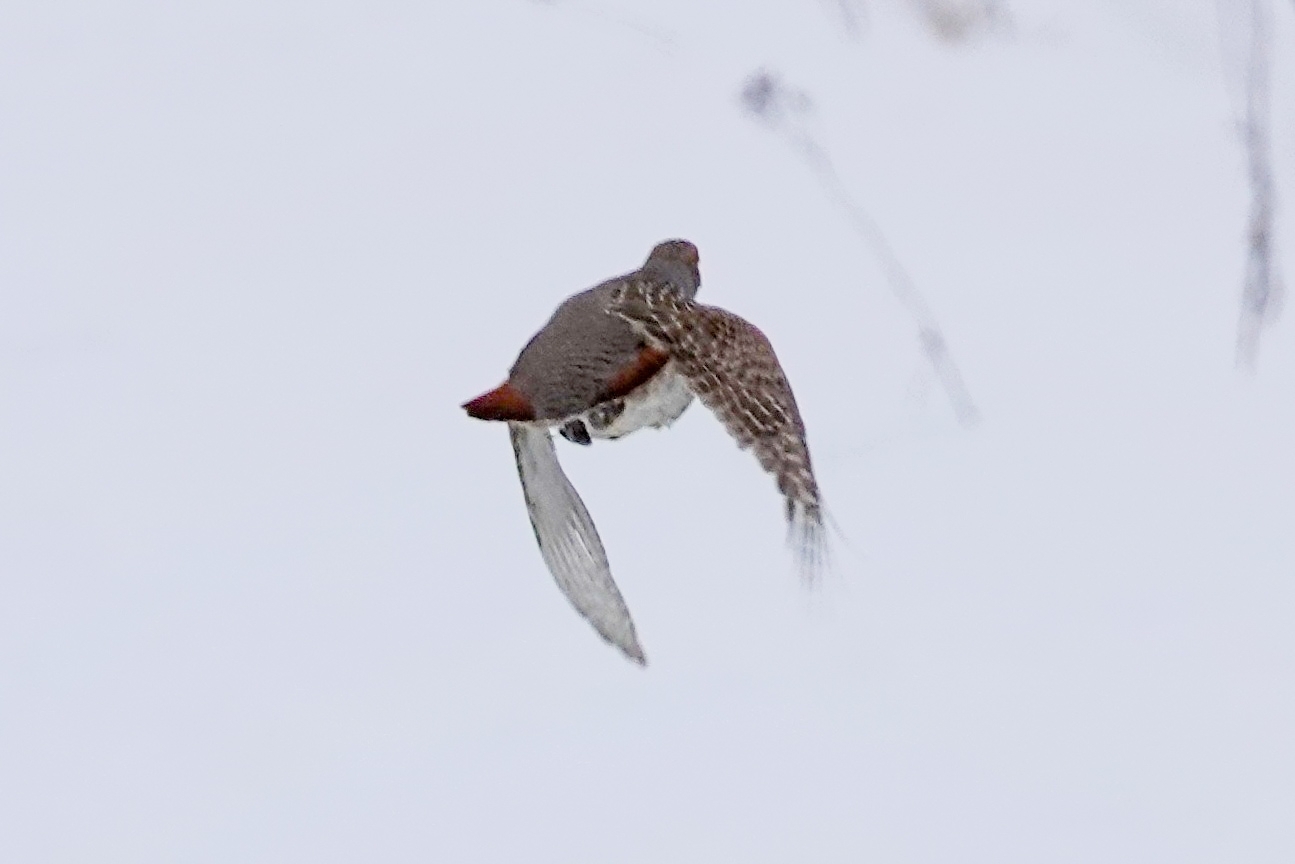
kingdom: Animalia
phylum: Chordata
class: Aves
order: Galliformes
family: Phasianidae
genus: Perdix
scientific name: Perdix perdix
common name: Grey partridge
